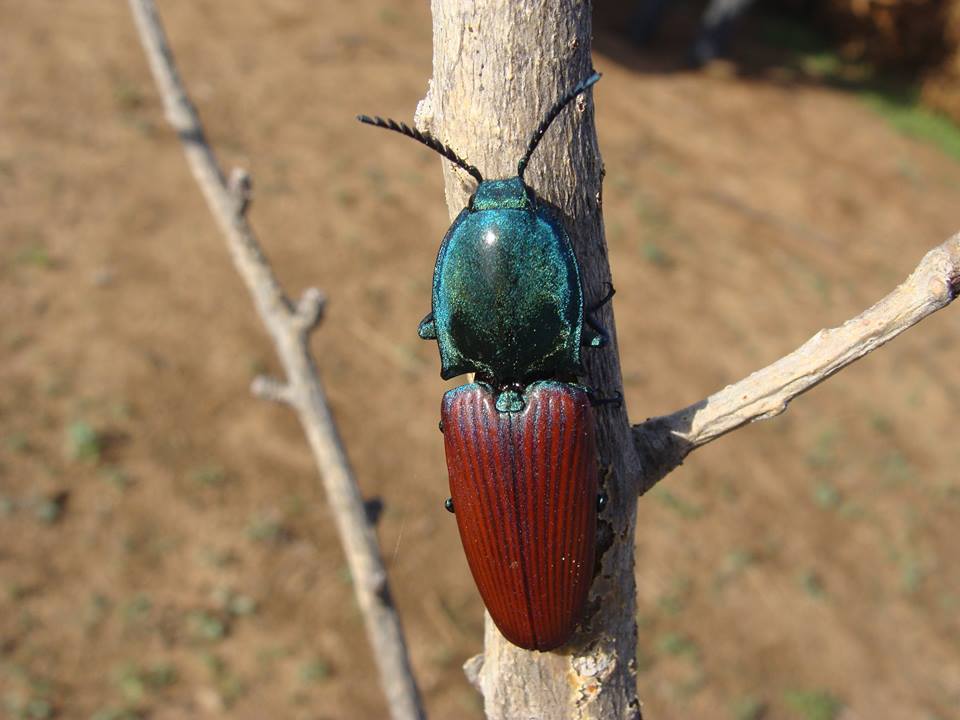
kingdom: Animalia
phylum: Arthropoda
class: Insecta
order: Coleoptera
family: Elateridae
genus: Chalcolepidius
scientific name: Chalcolepidius
